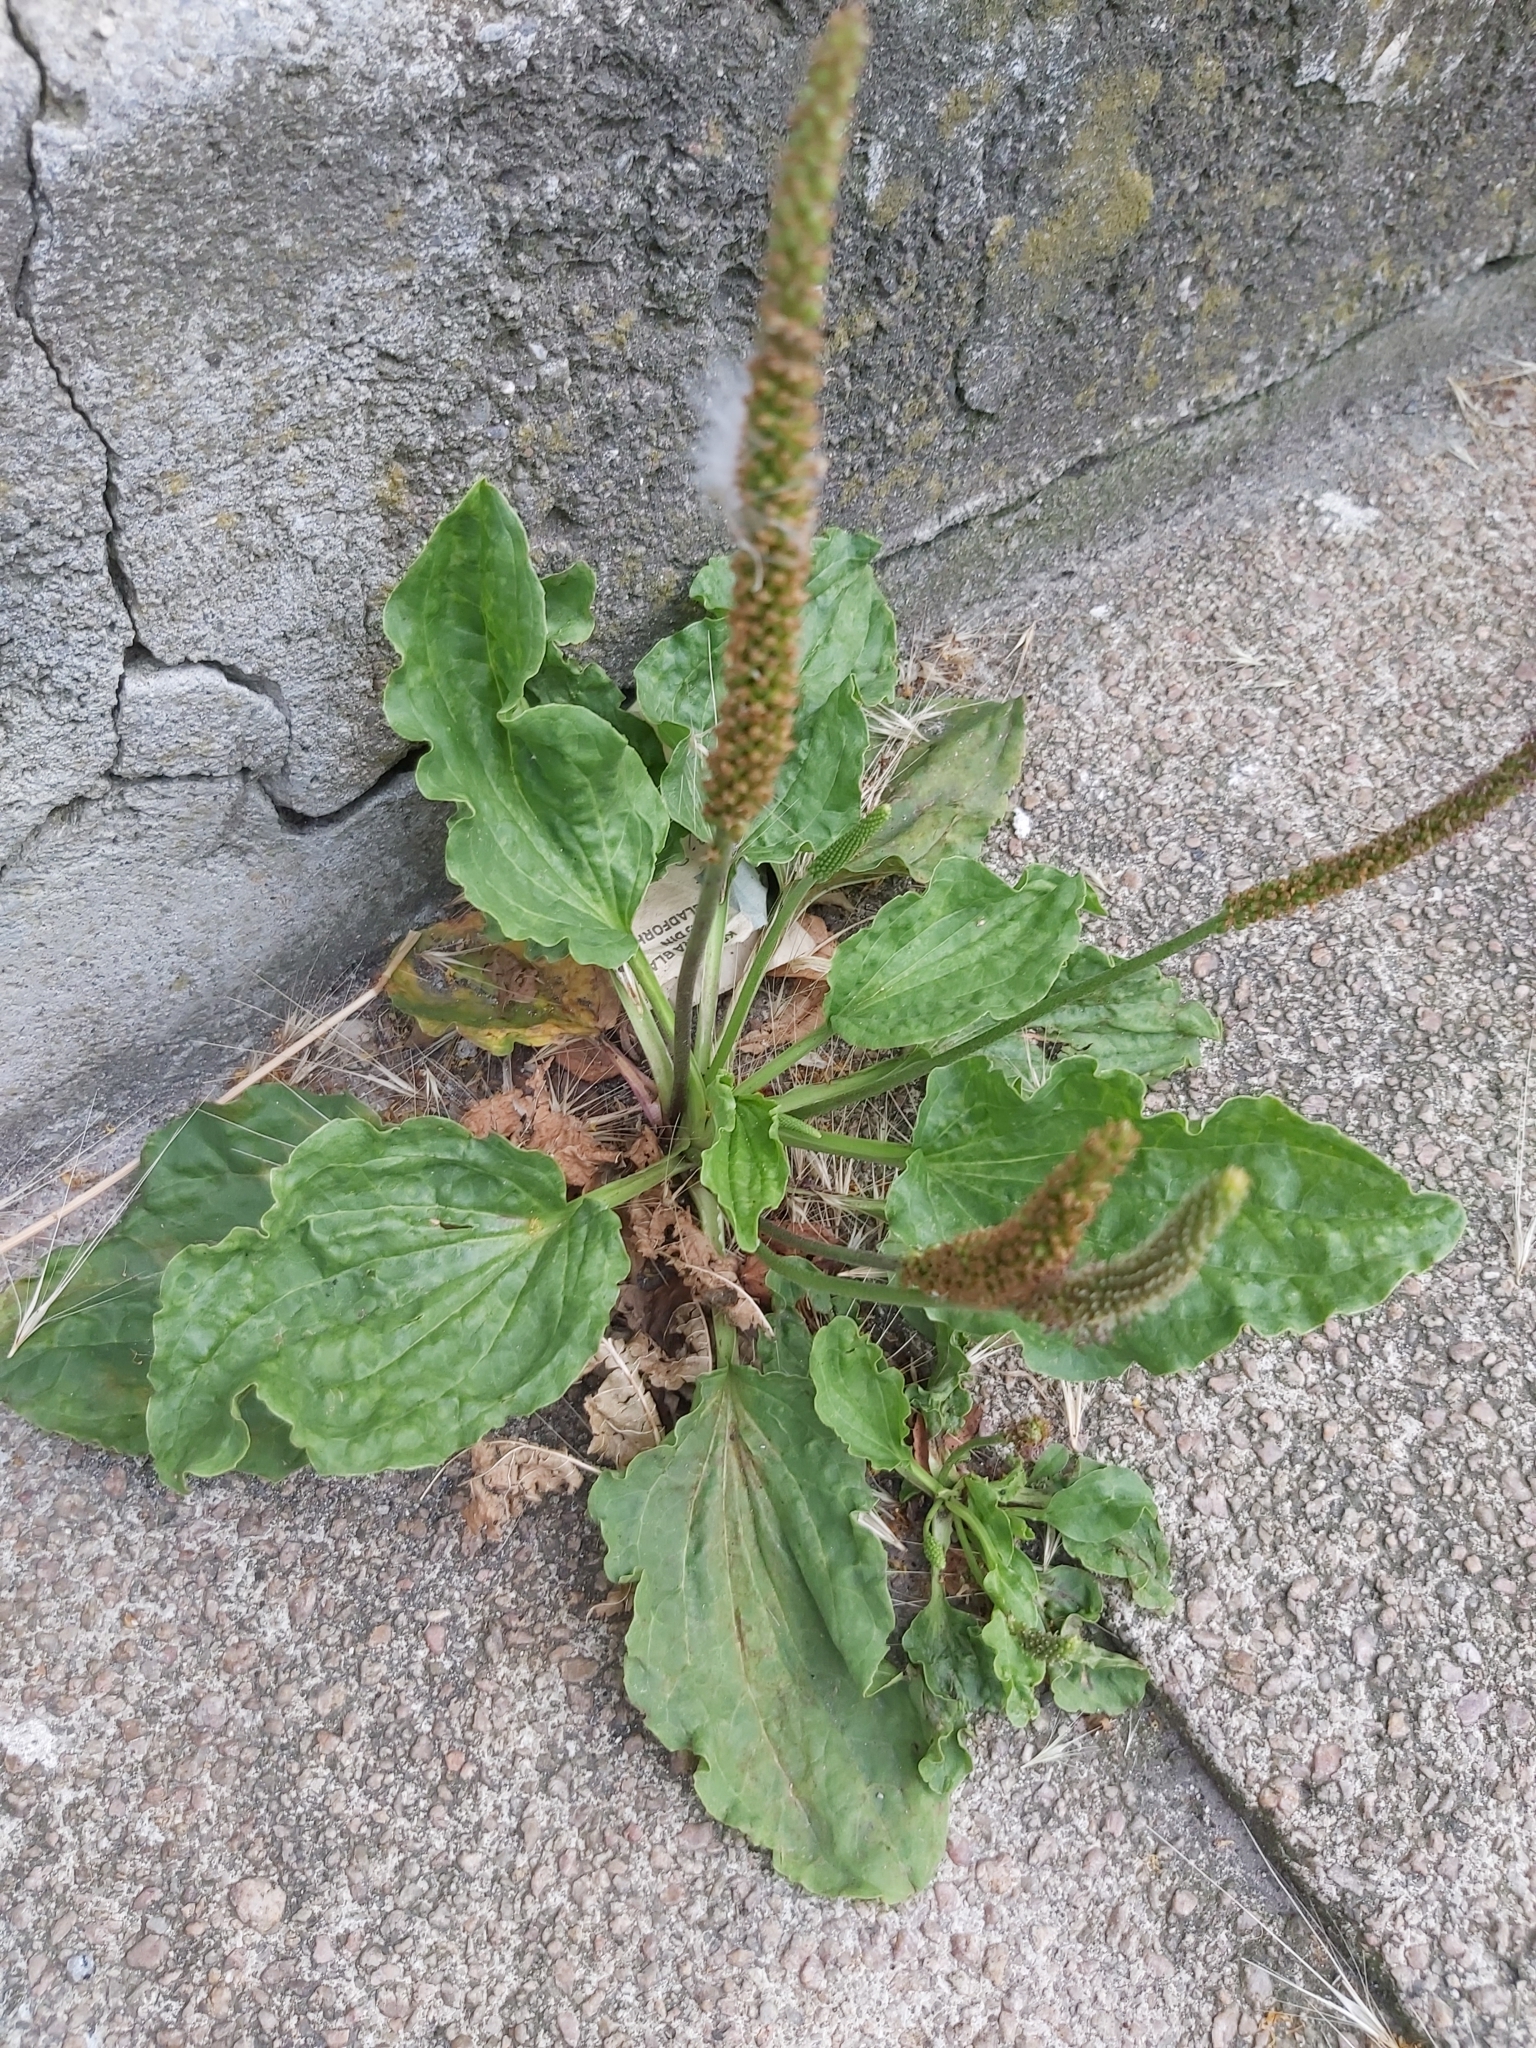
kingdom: Plantae
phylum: Tracheophyta
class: Magnoliopsida
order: Lamiales
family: Plantaginaceae
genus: Plantago
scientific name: Plantago major
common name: Common plantain
